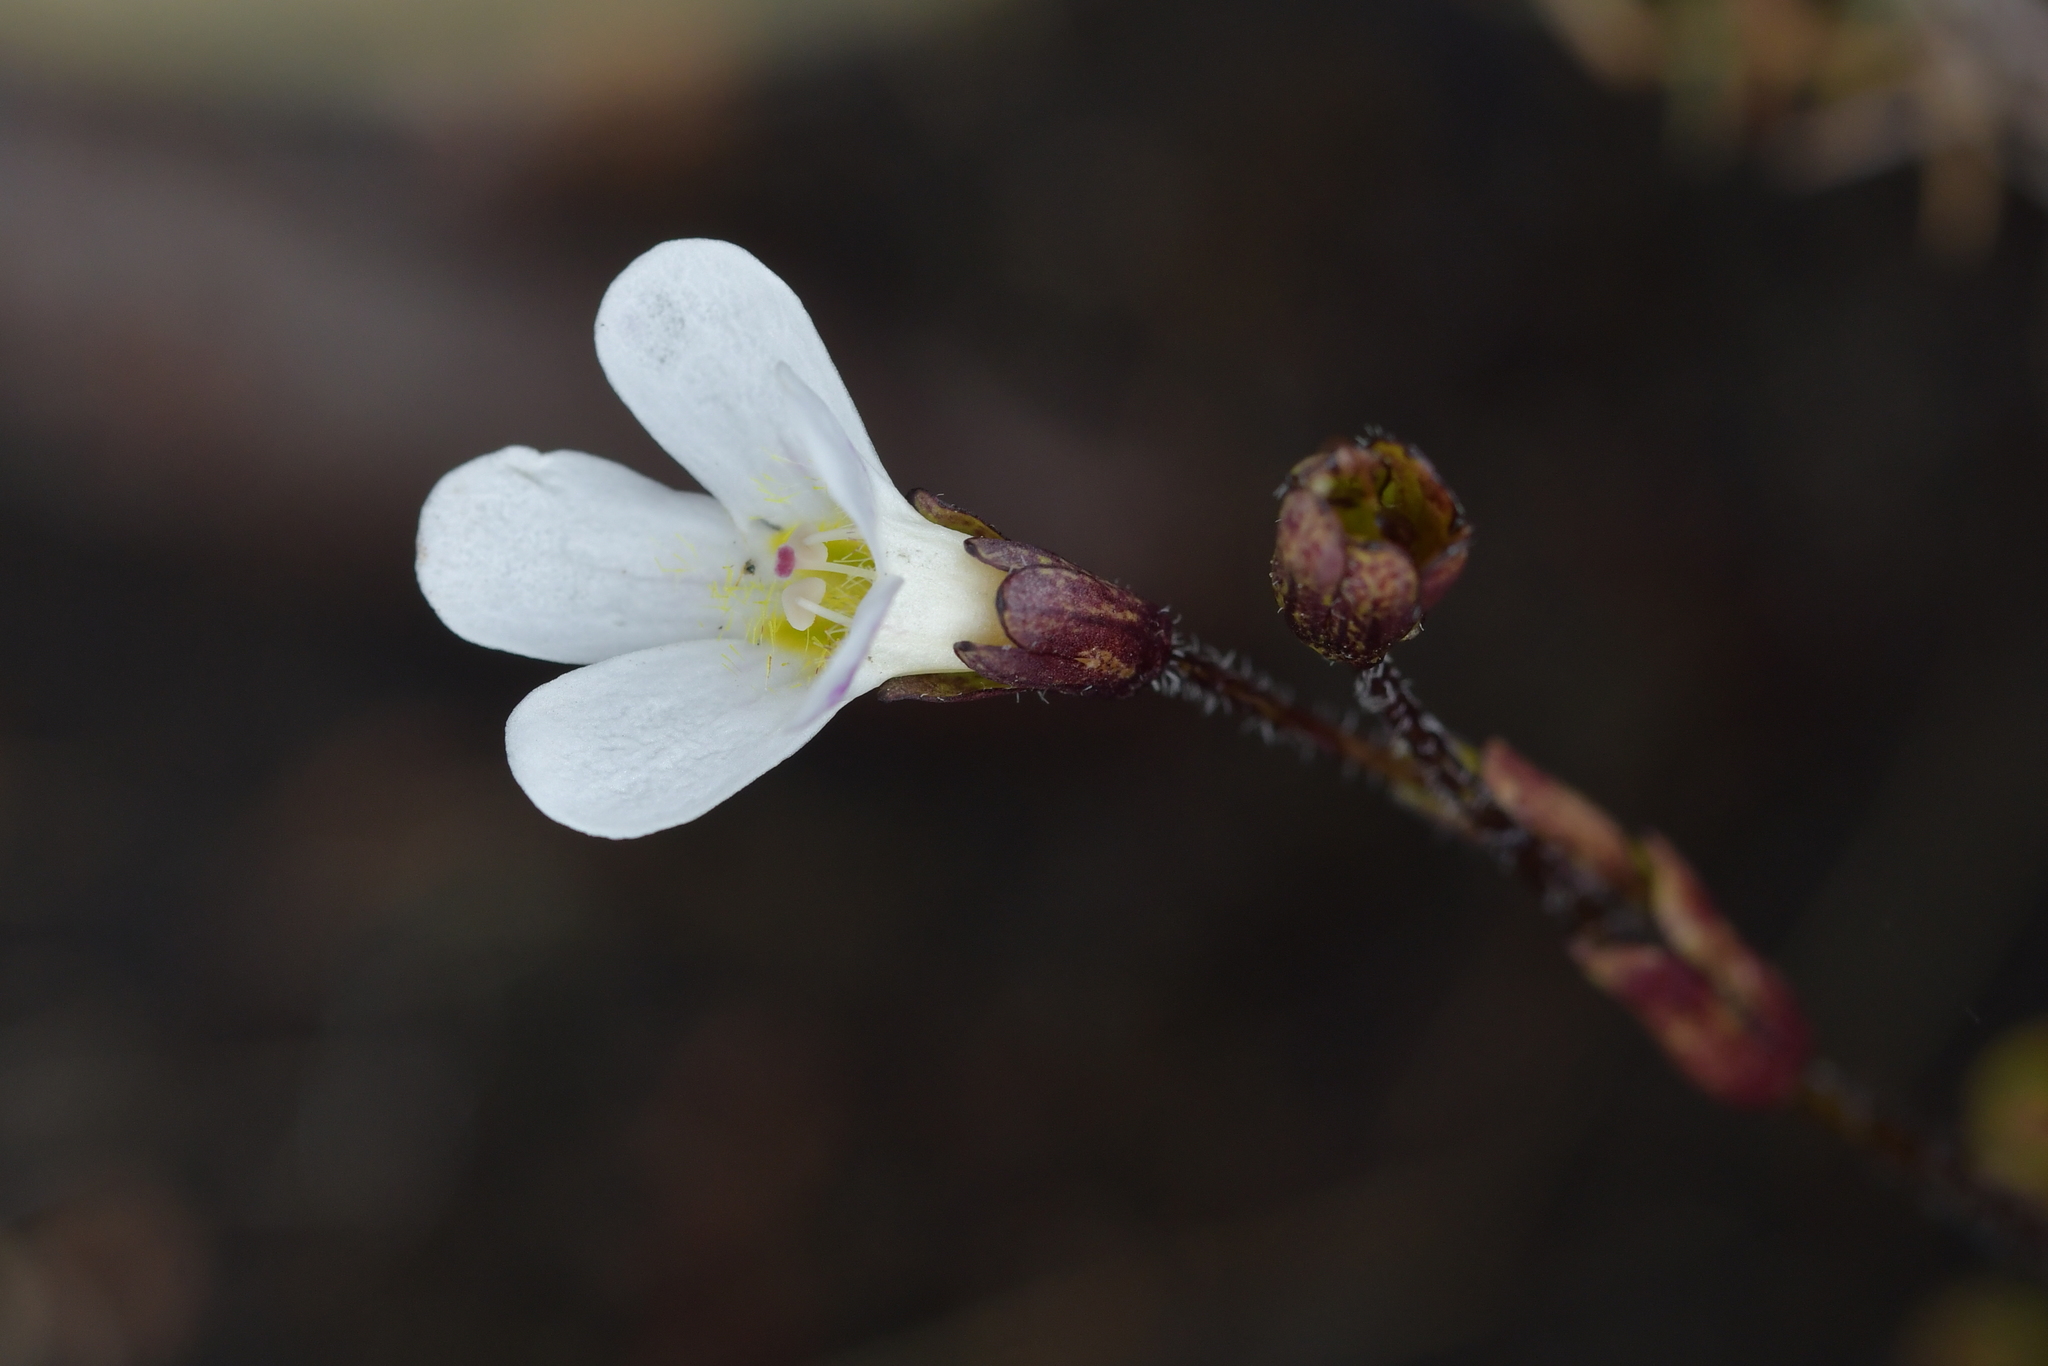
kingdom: Plantae
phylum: Tracheophyta
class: Magnoliopsida
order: Lamiales
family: Plantaginaceae
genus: Ourisia
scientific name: Ourisia vulcanica
